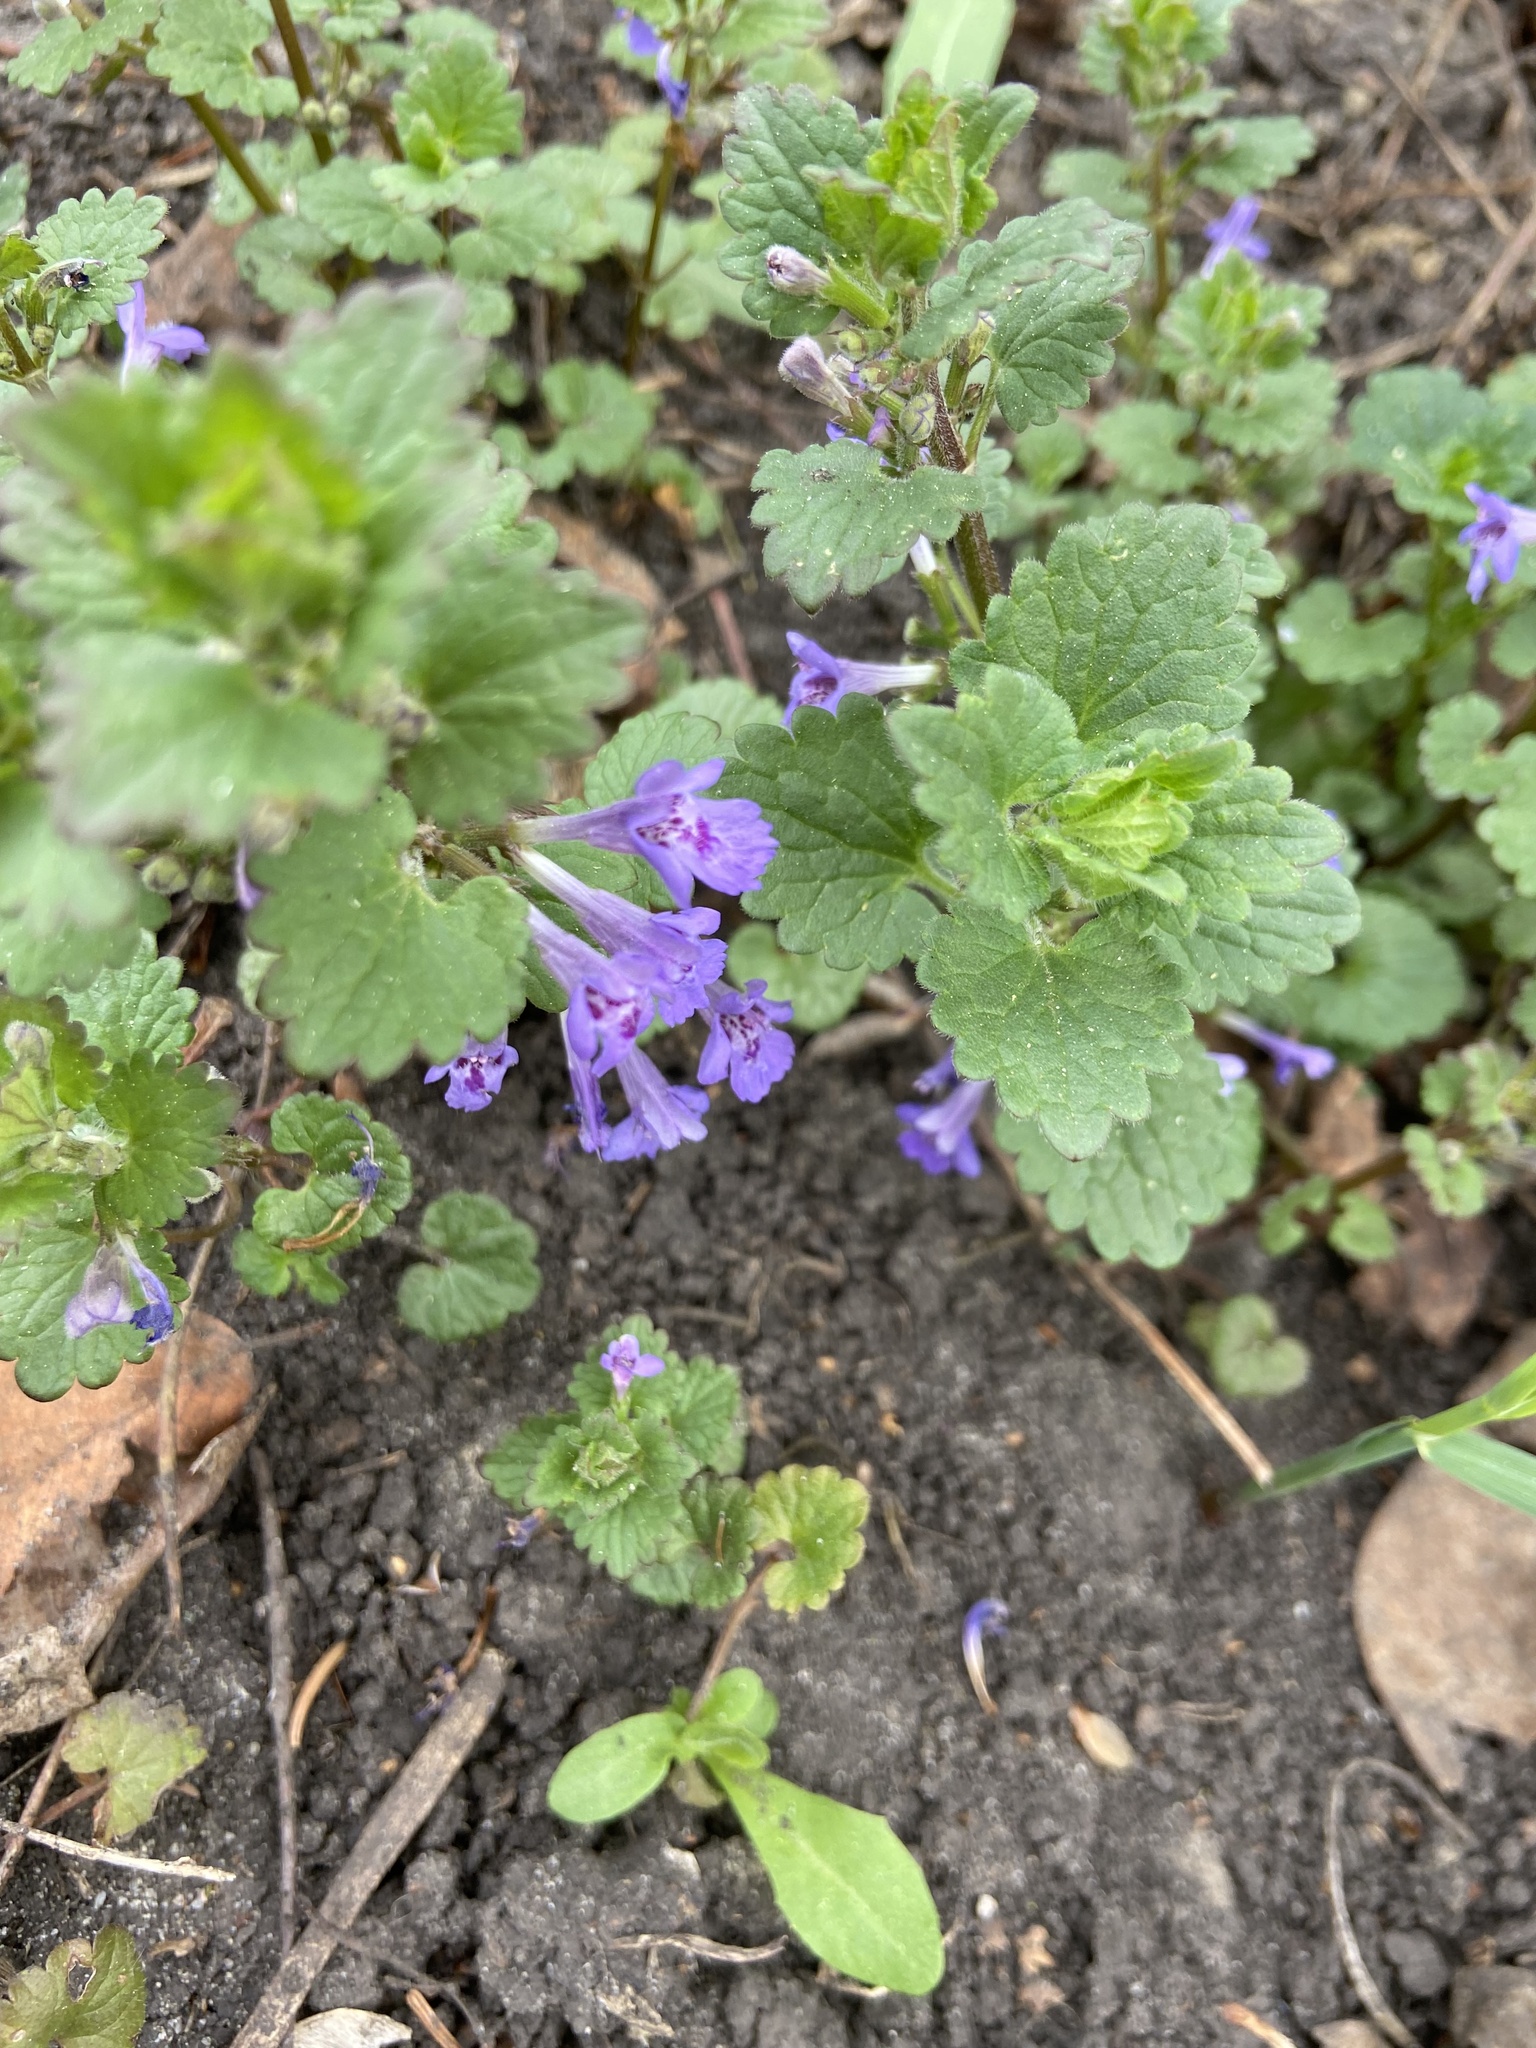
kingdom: Plantae
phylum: Tracheophyta
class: Magnoliopsida
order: Lamiales
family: Lamiaceae
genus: Glechoma
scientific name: Glechoma hederacea
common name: Ground ivy
